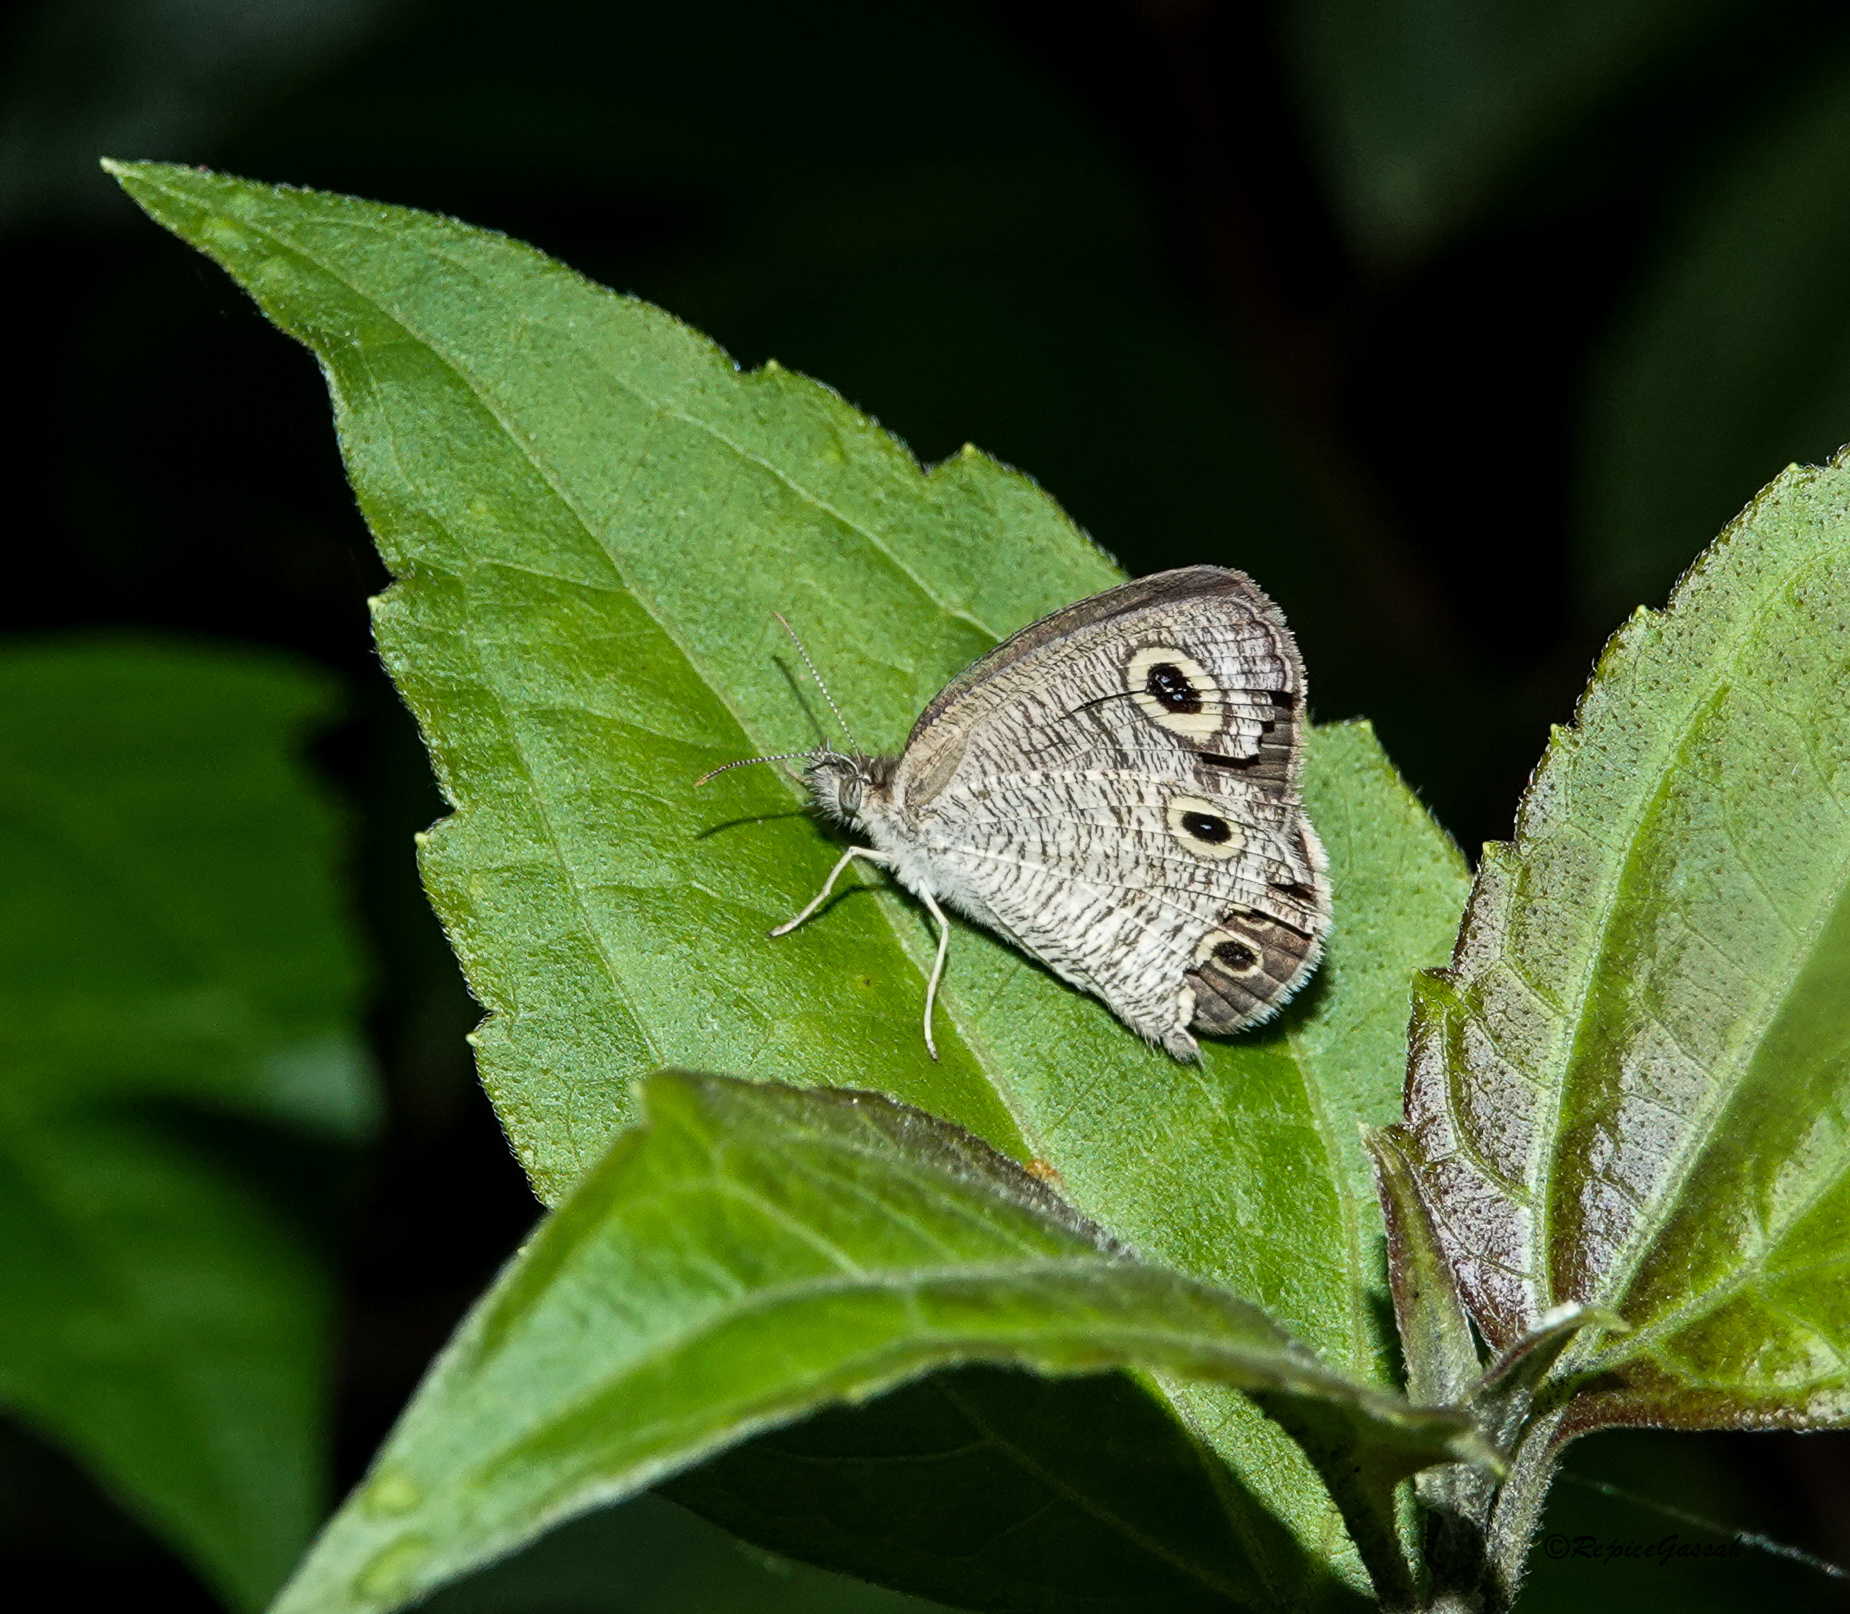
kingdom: Animalia
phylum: Arthropoda
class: Insecta
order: Lepidoptera
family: Nymphalidae
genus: Ypthima
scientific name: Ypthima huebneri
